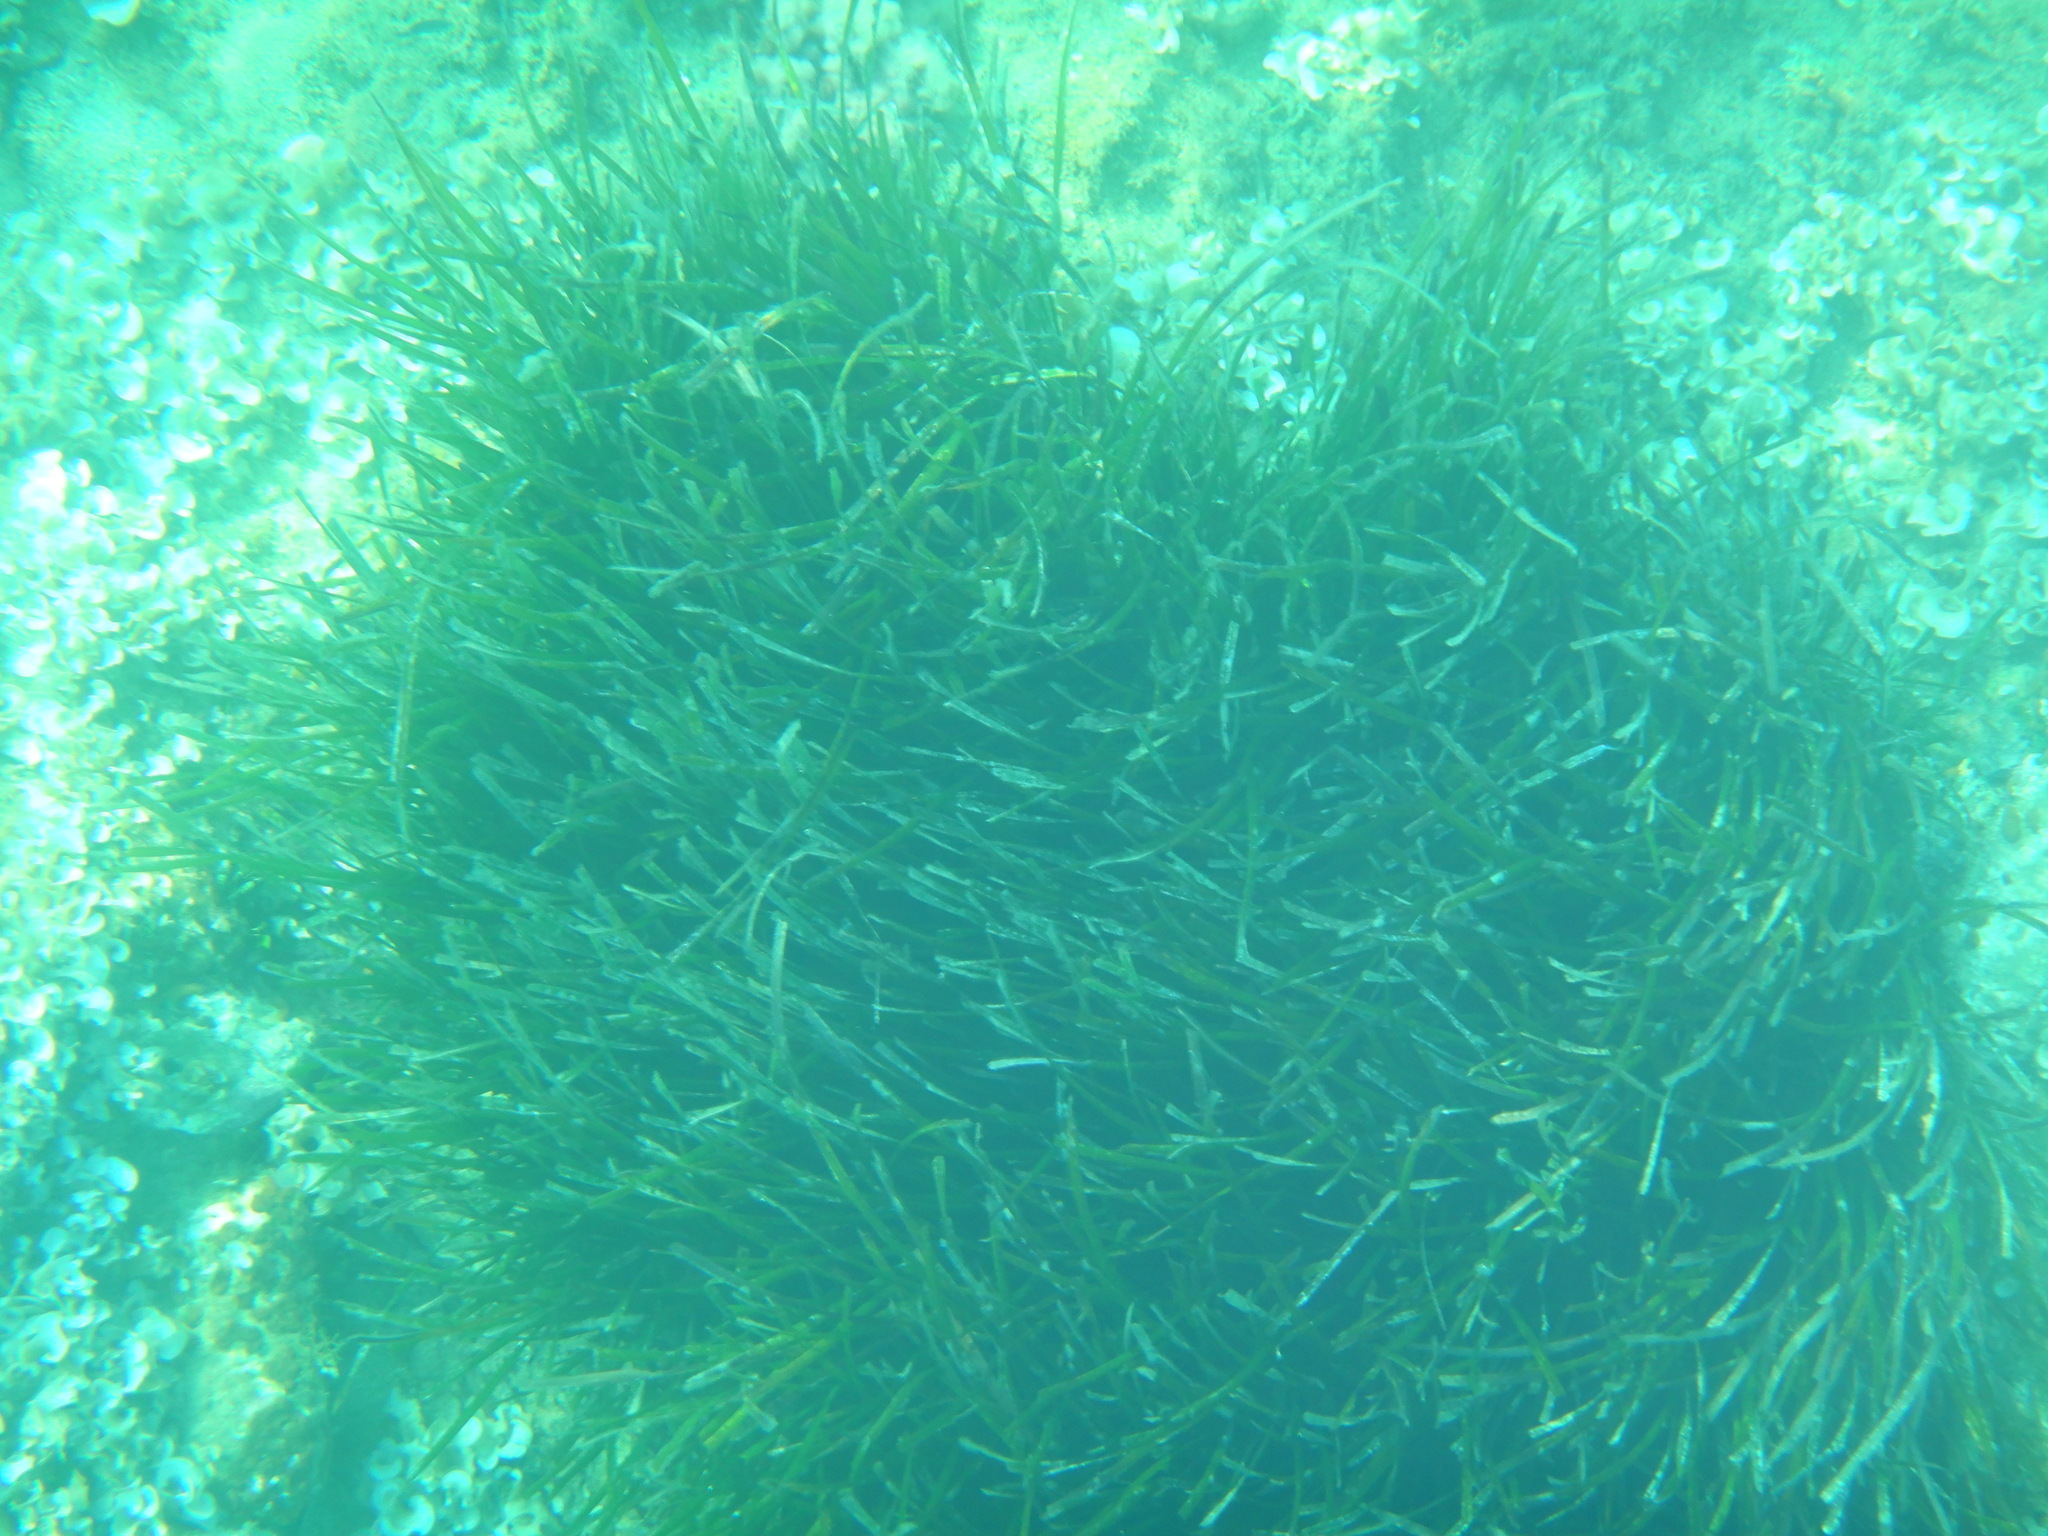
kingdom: Plantae
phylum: Tracheophyta
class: Liliopsida
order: Alismatales
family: Posidoniaceae
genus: Posidonia
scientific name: Posidonia oceanica
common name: Mediterranean tapeweed
